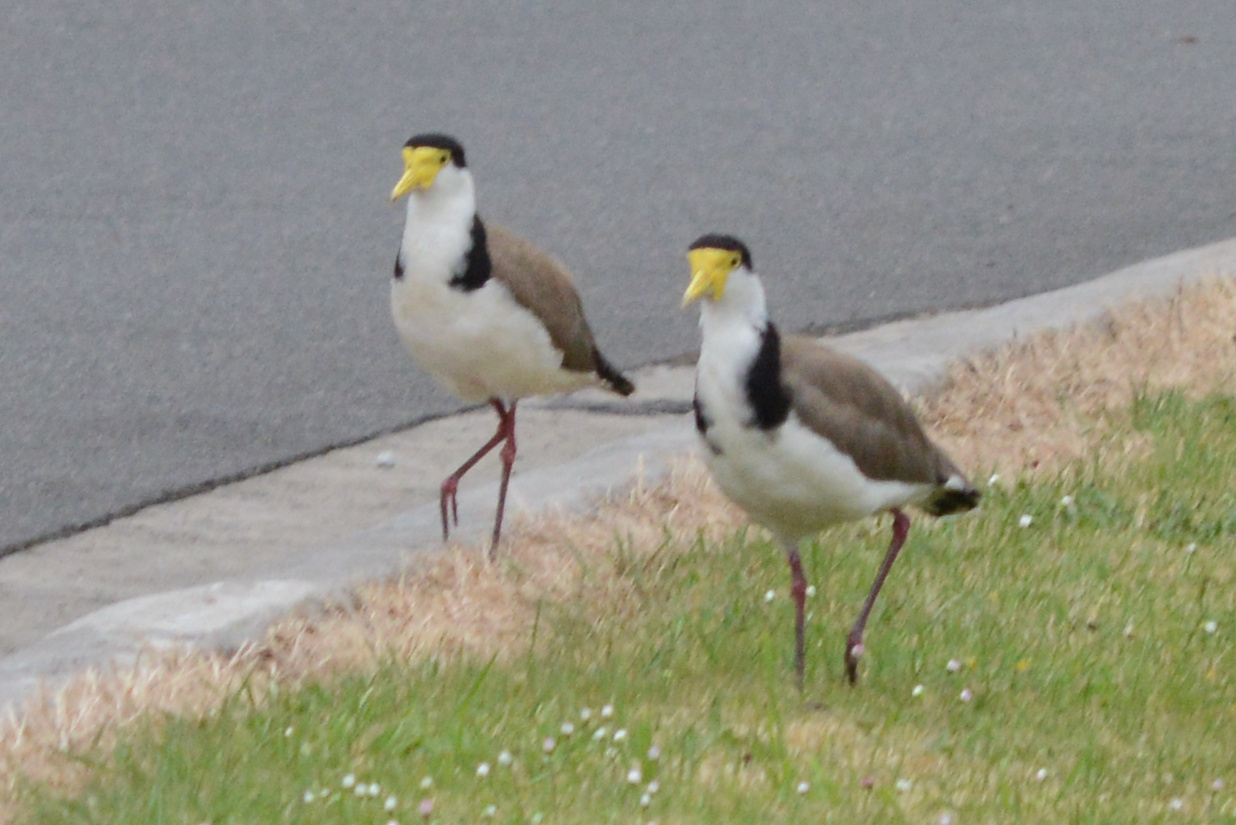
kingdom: Animalia
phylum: Chordata
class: Aves
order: Charadriiformes
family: Charadriidae
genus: Vanellus
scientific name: Vanellus miles
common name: Masked lapwing
